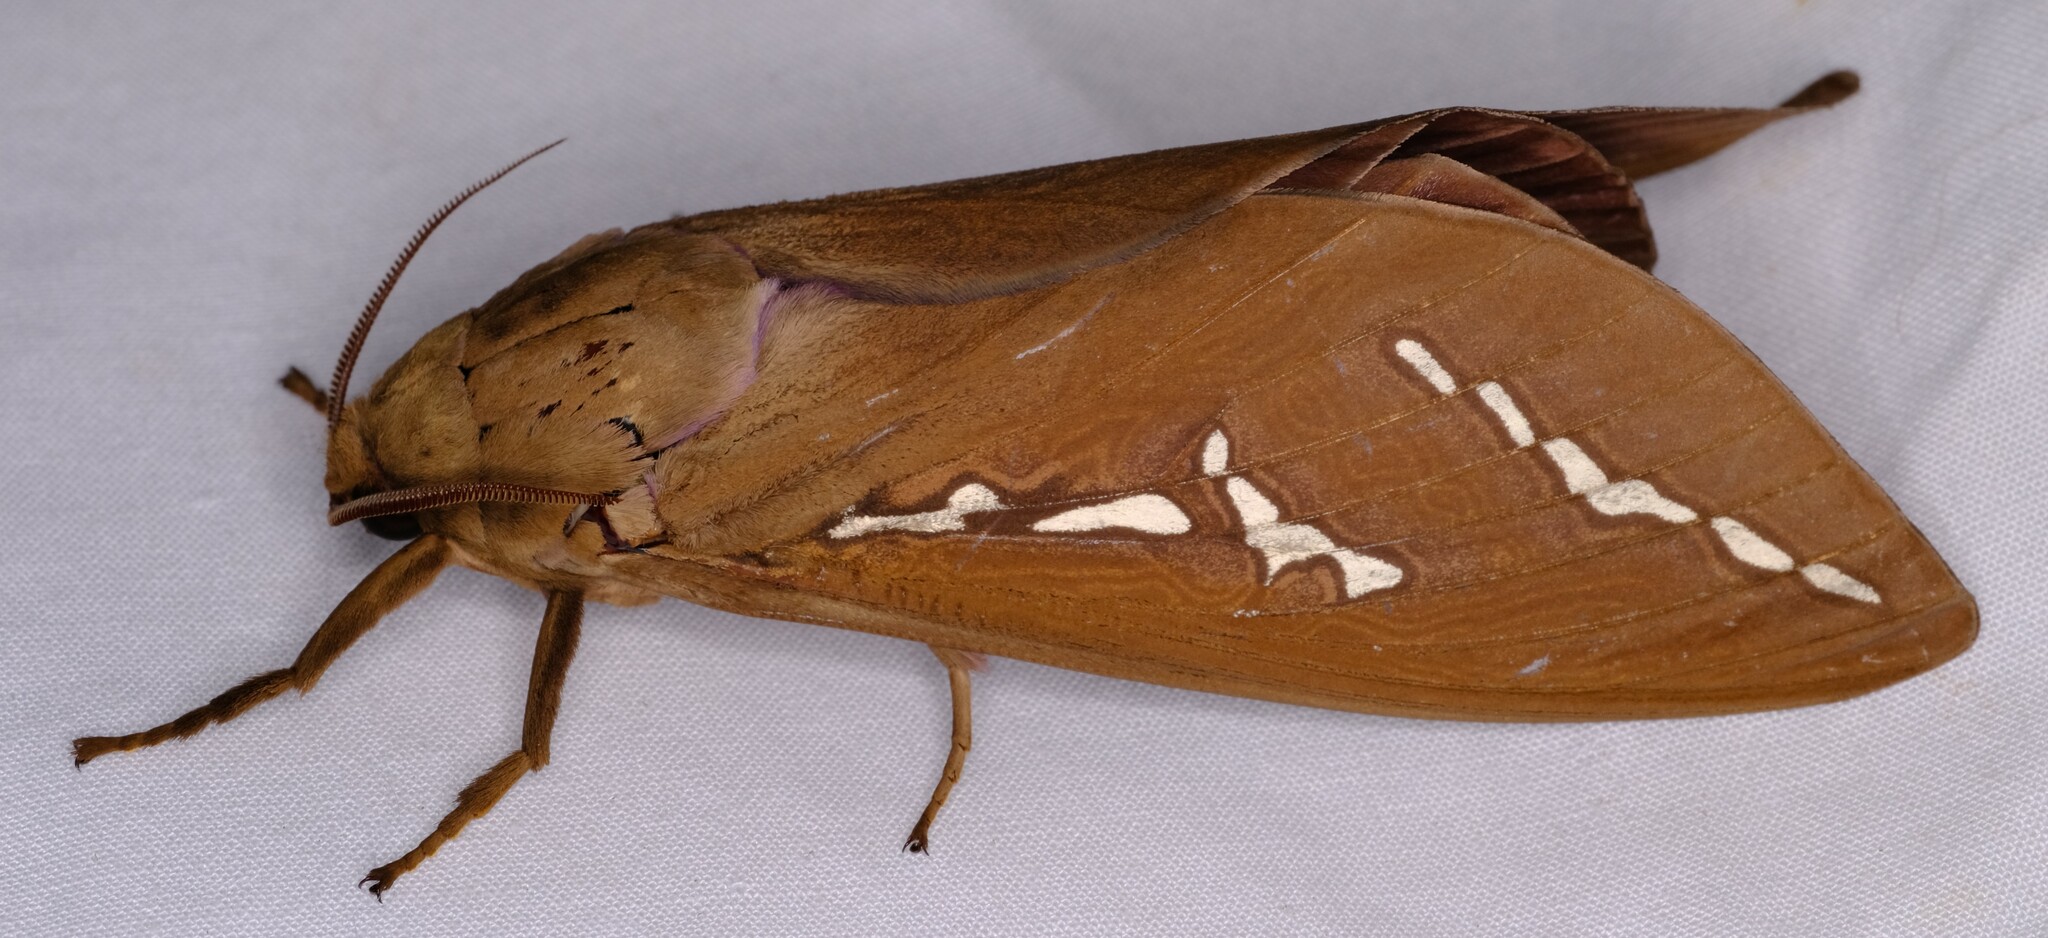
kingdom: Animalia
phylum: Arthropoda
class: Insecta
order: Lepidoptera
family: Hepialidae
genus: Abantiades
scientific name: Abantiades hyalinatus
